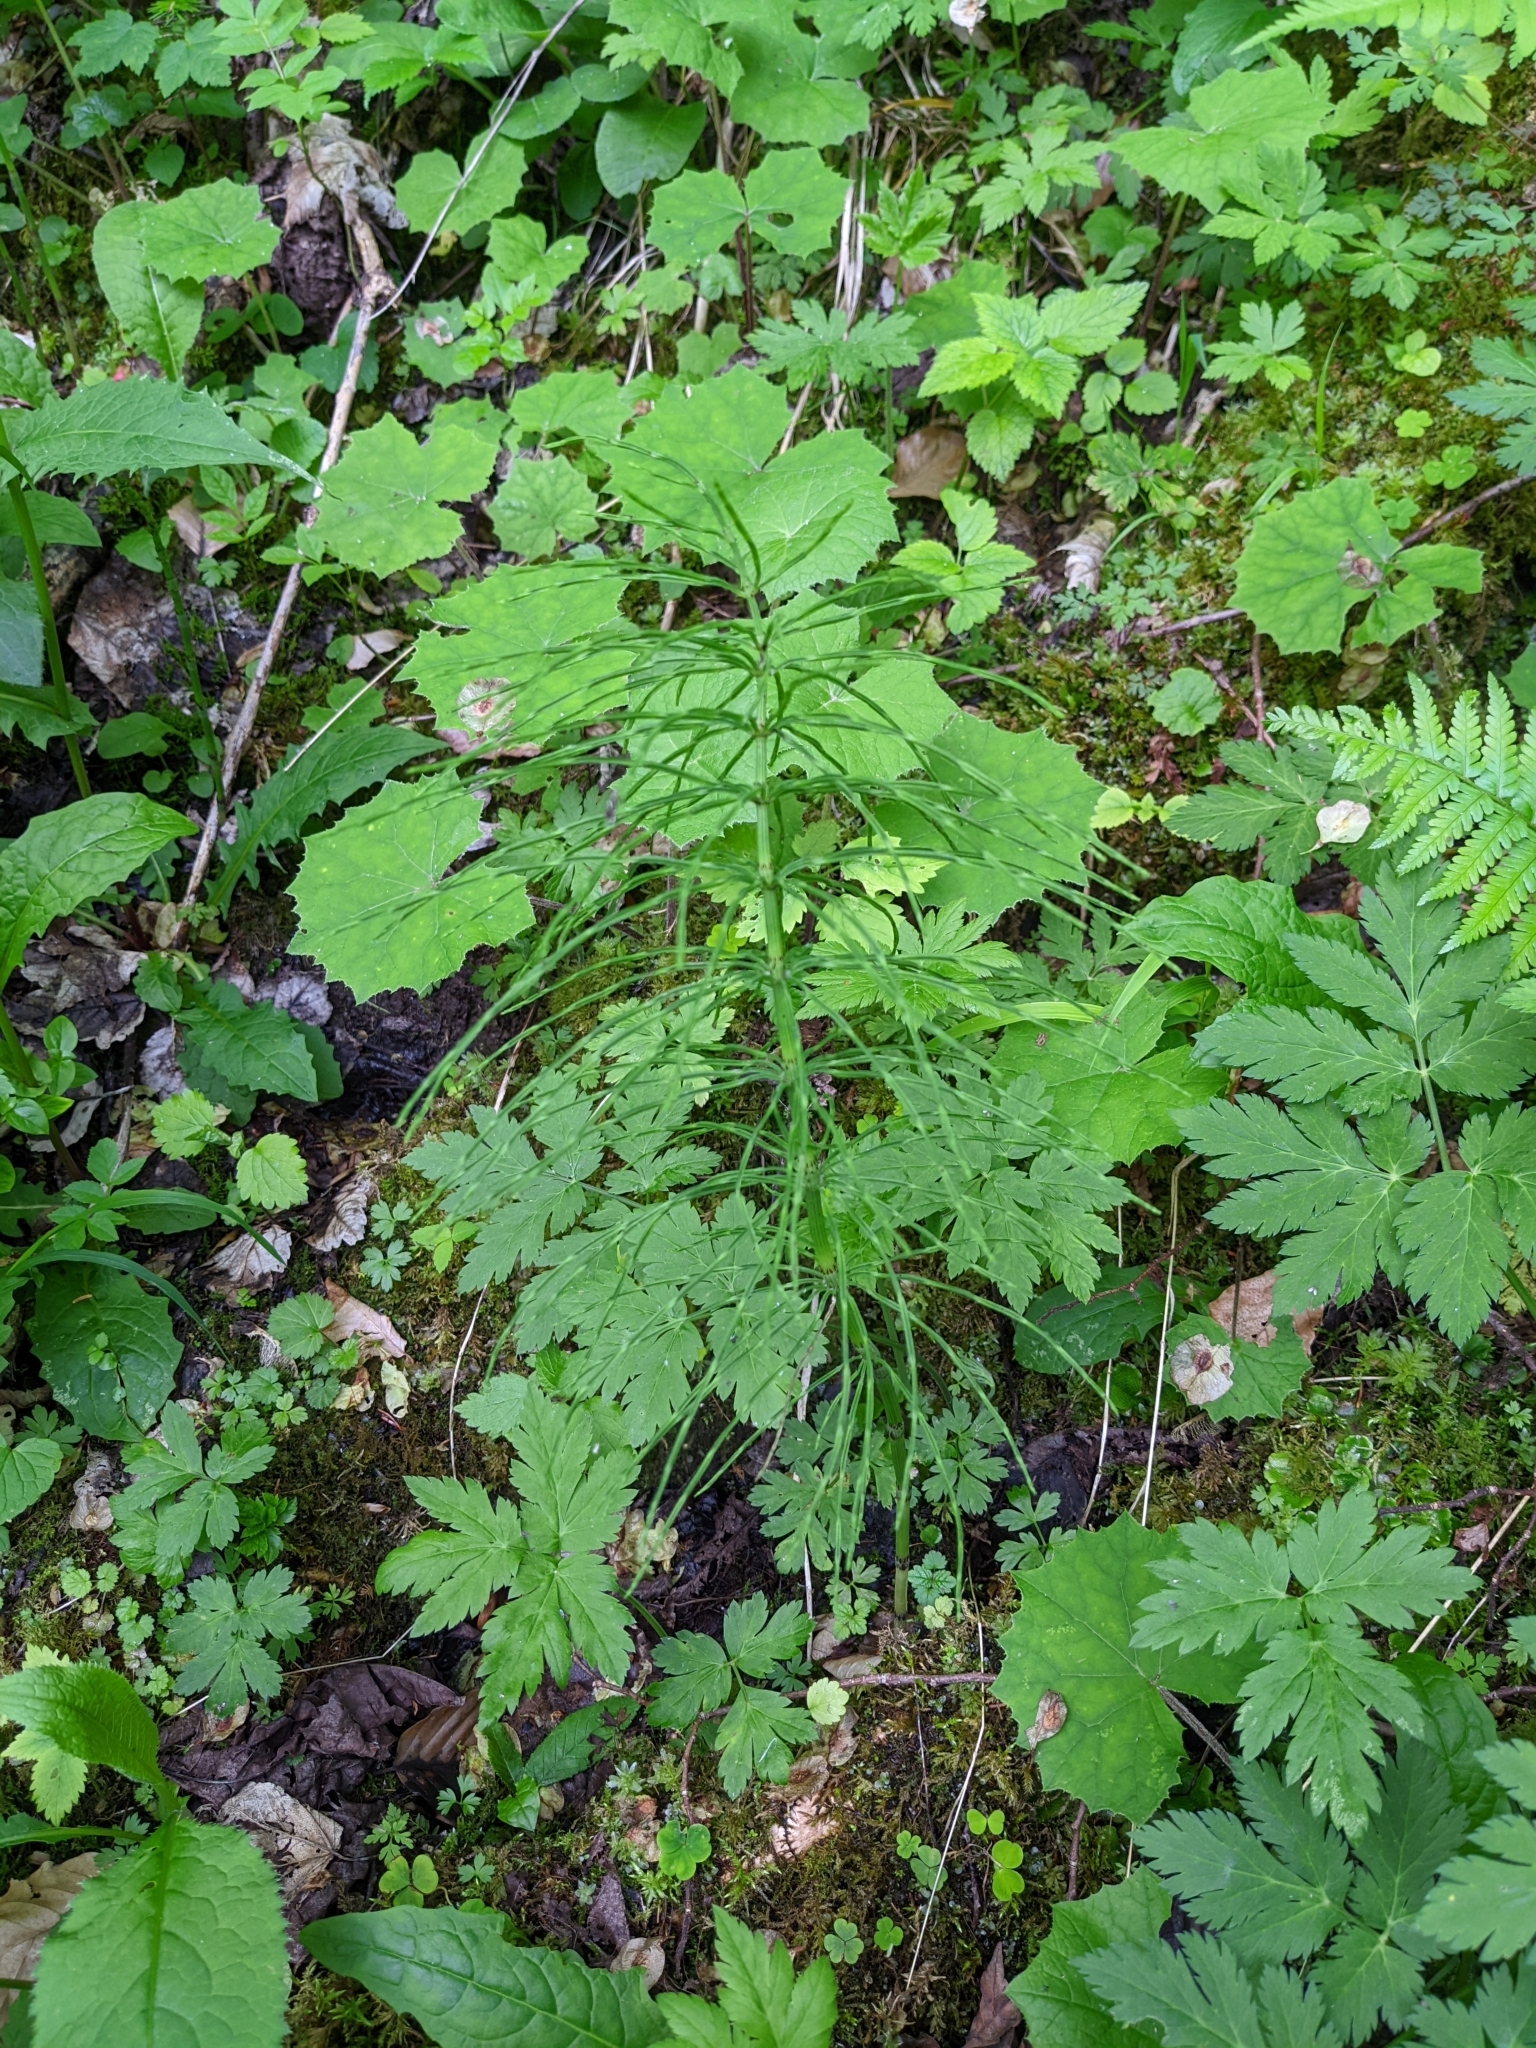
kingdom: Plantae
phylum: Tracheophyta
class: Polypodiopsida
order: Equisetales
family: Equisetaceae
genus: Equisetum
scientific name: Equisetum arvense
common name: Field horsetail
